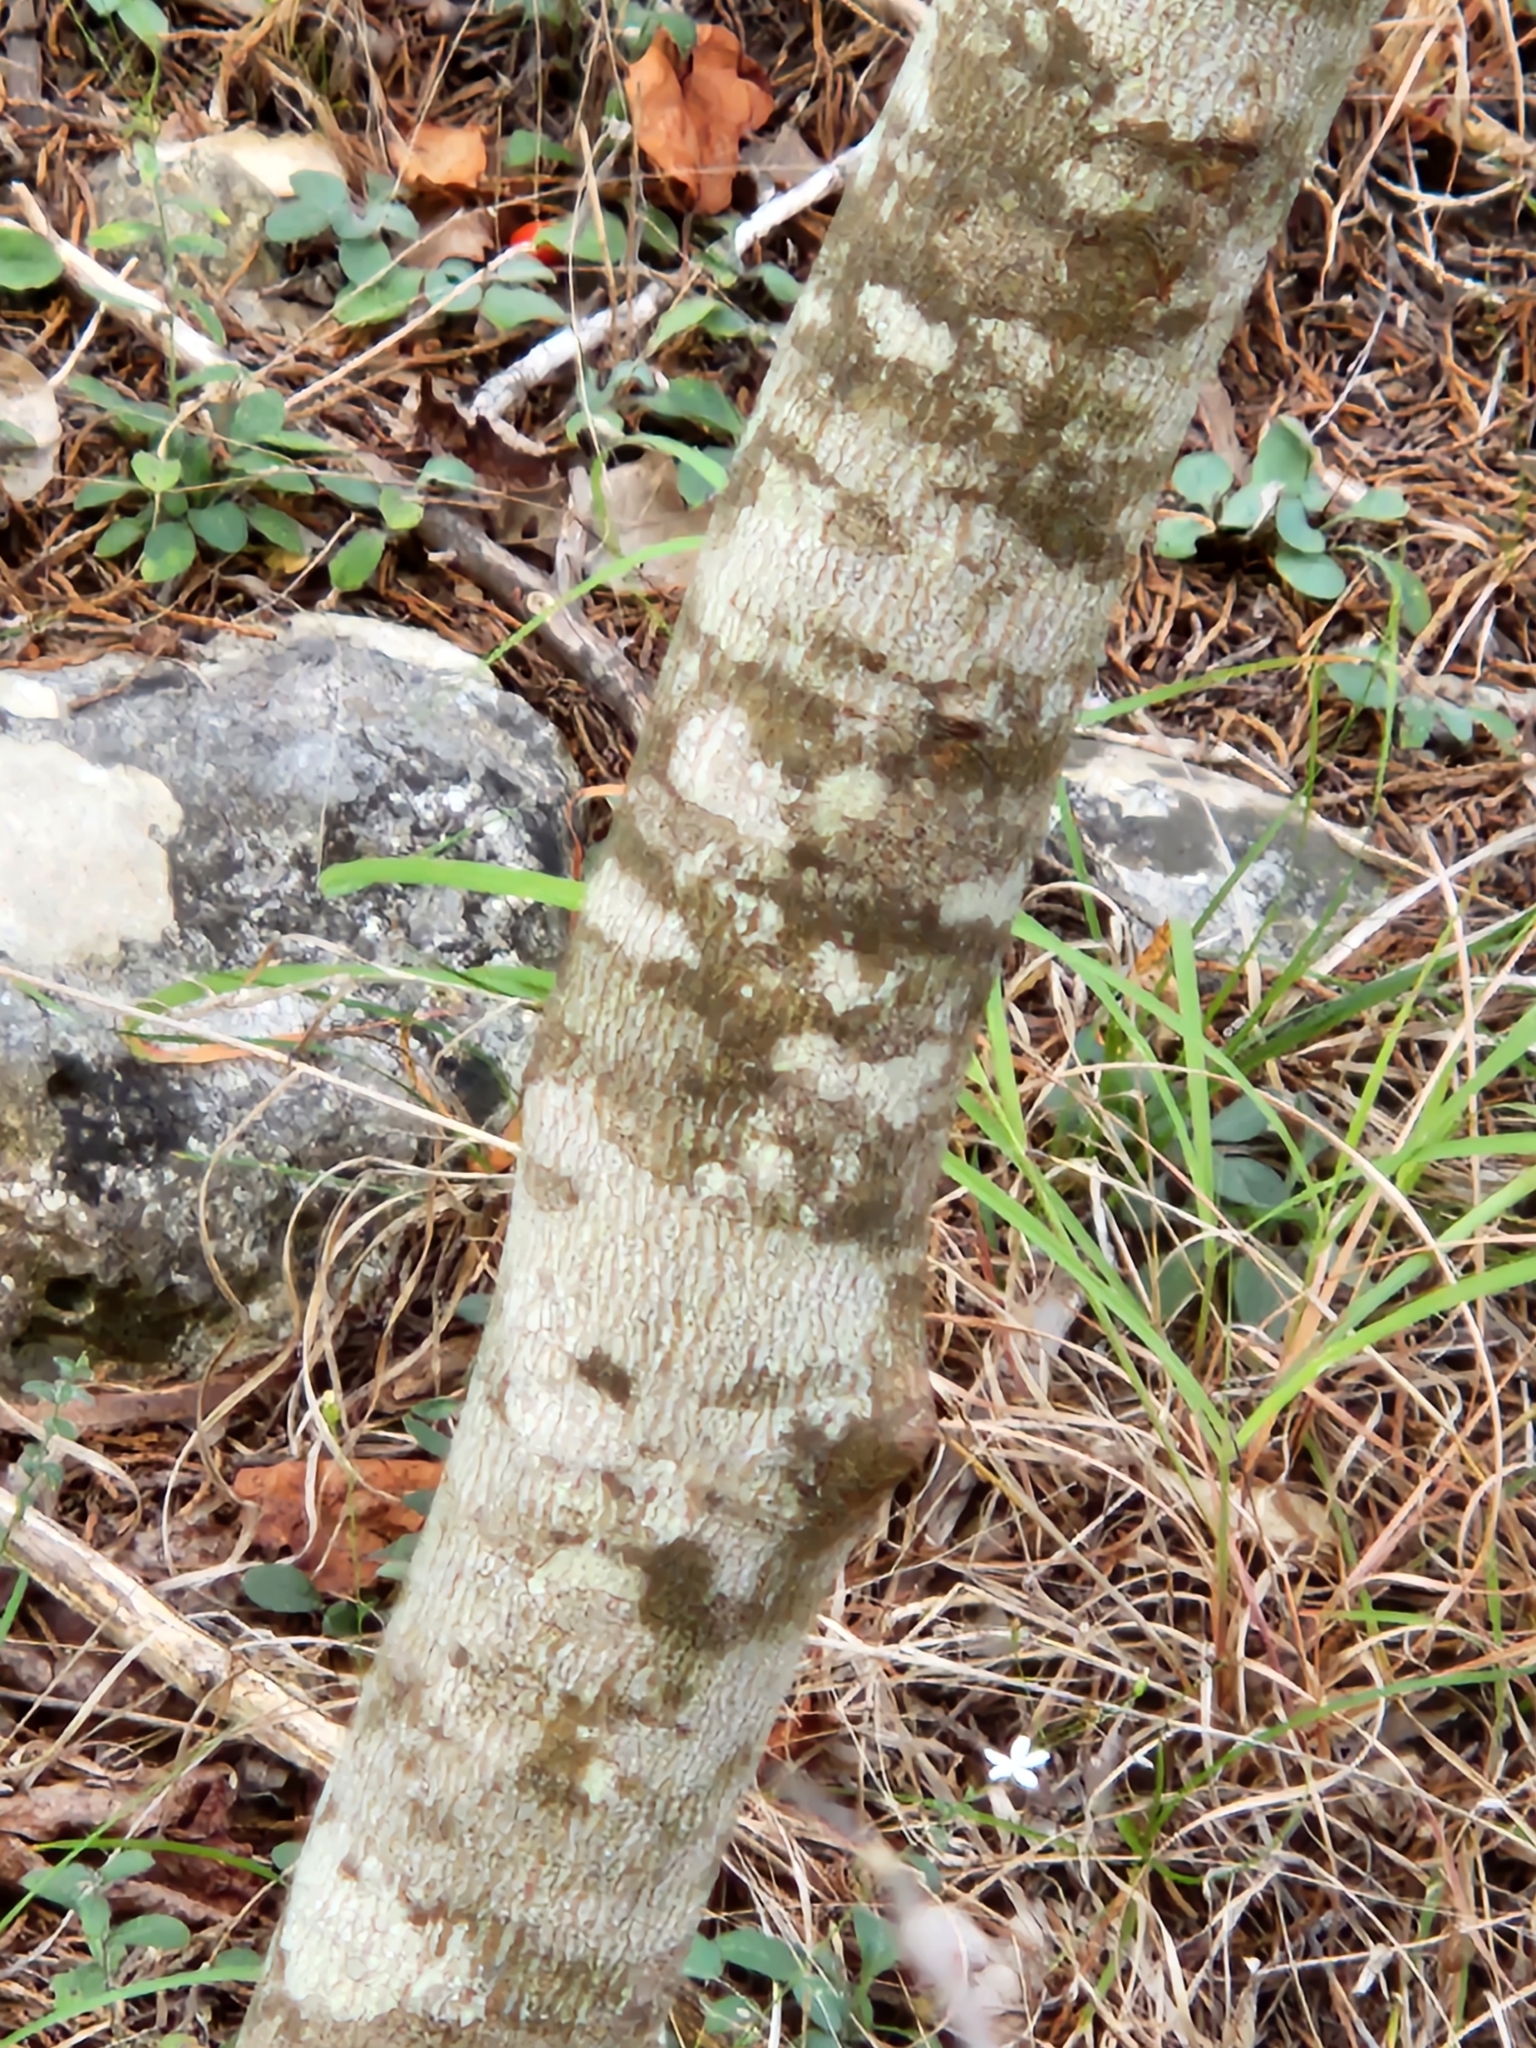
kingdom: Plantae
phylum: Tracheophyta
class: Magnoliopsida
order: Fabales
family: Fabaceae
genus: Cercis
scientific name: Cercis canadensis
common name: Eastern redbud
